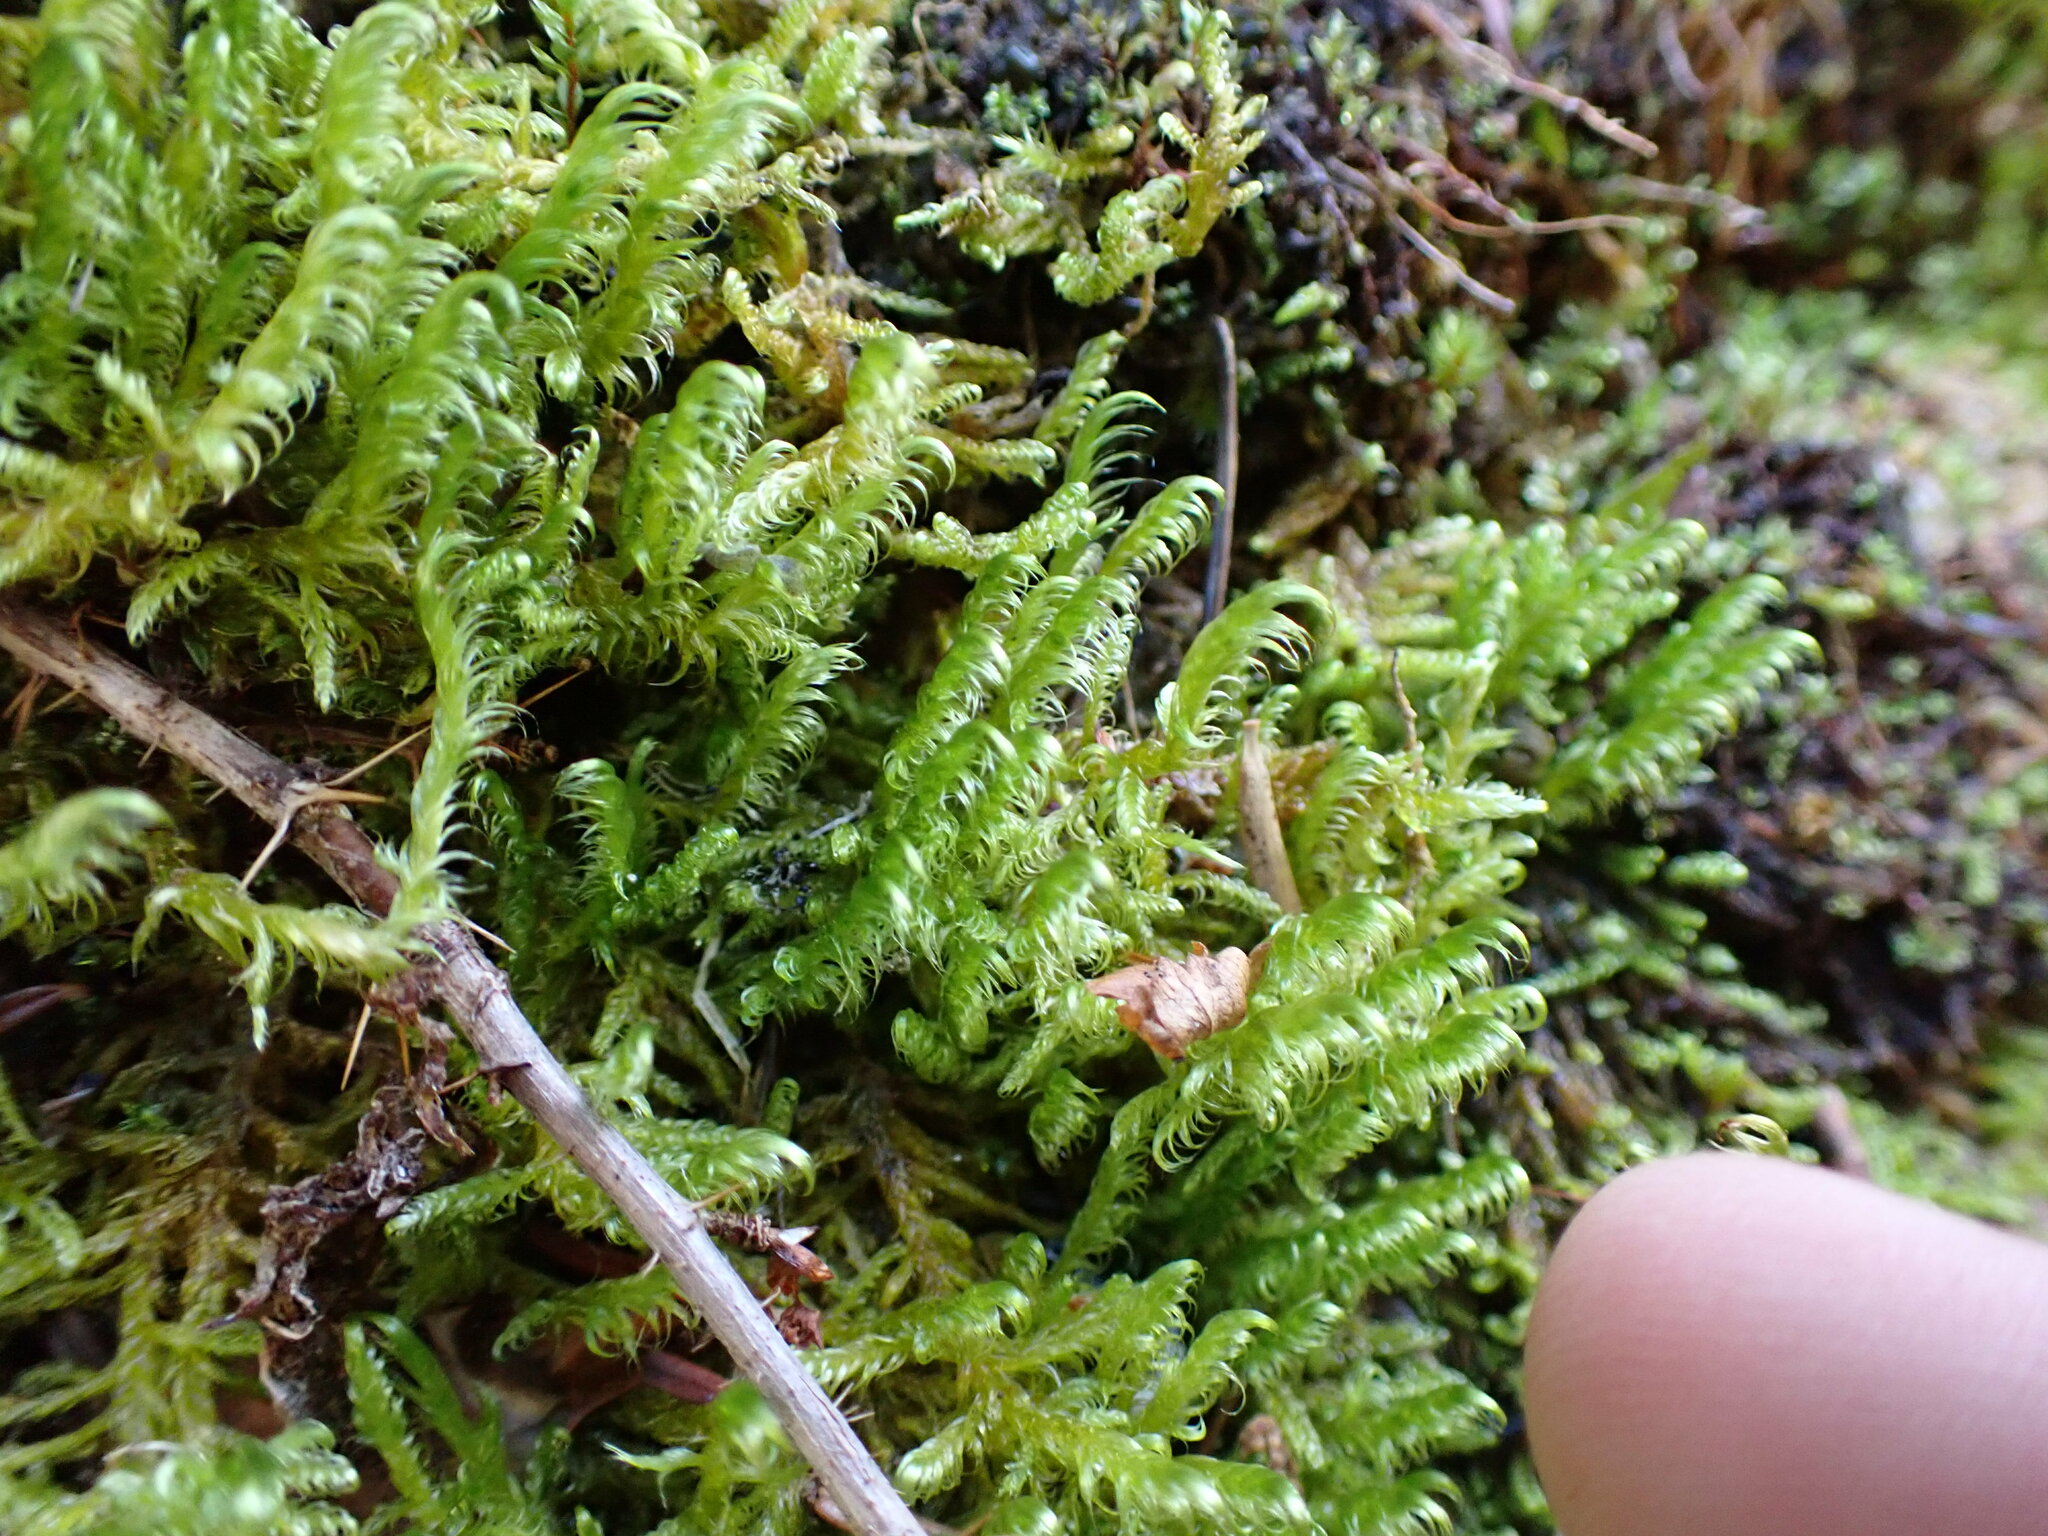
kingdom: Plantae
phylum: Bryophyta
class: Bryopsida
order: Hypnales
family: Scorpidiaceae
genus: Sanionia
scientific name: Sanionia uncinata
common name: Sickle moss
